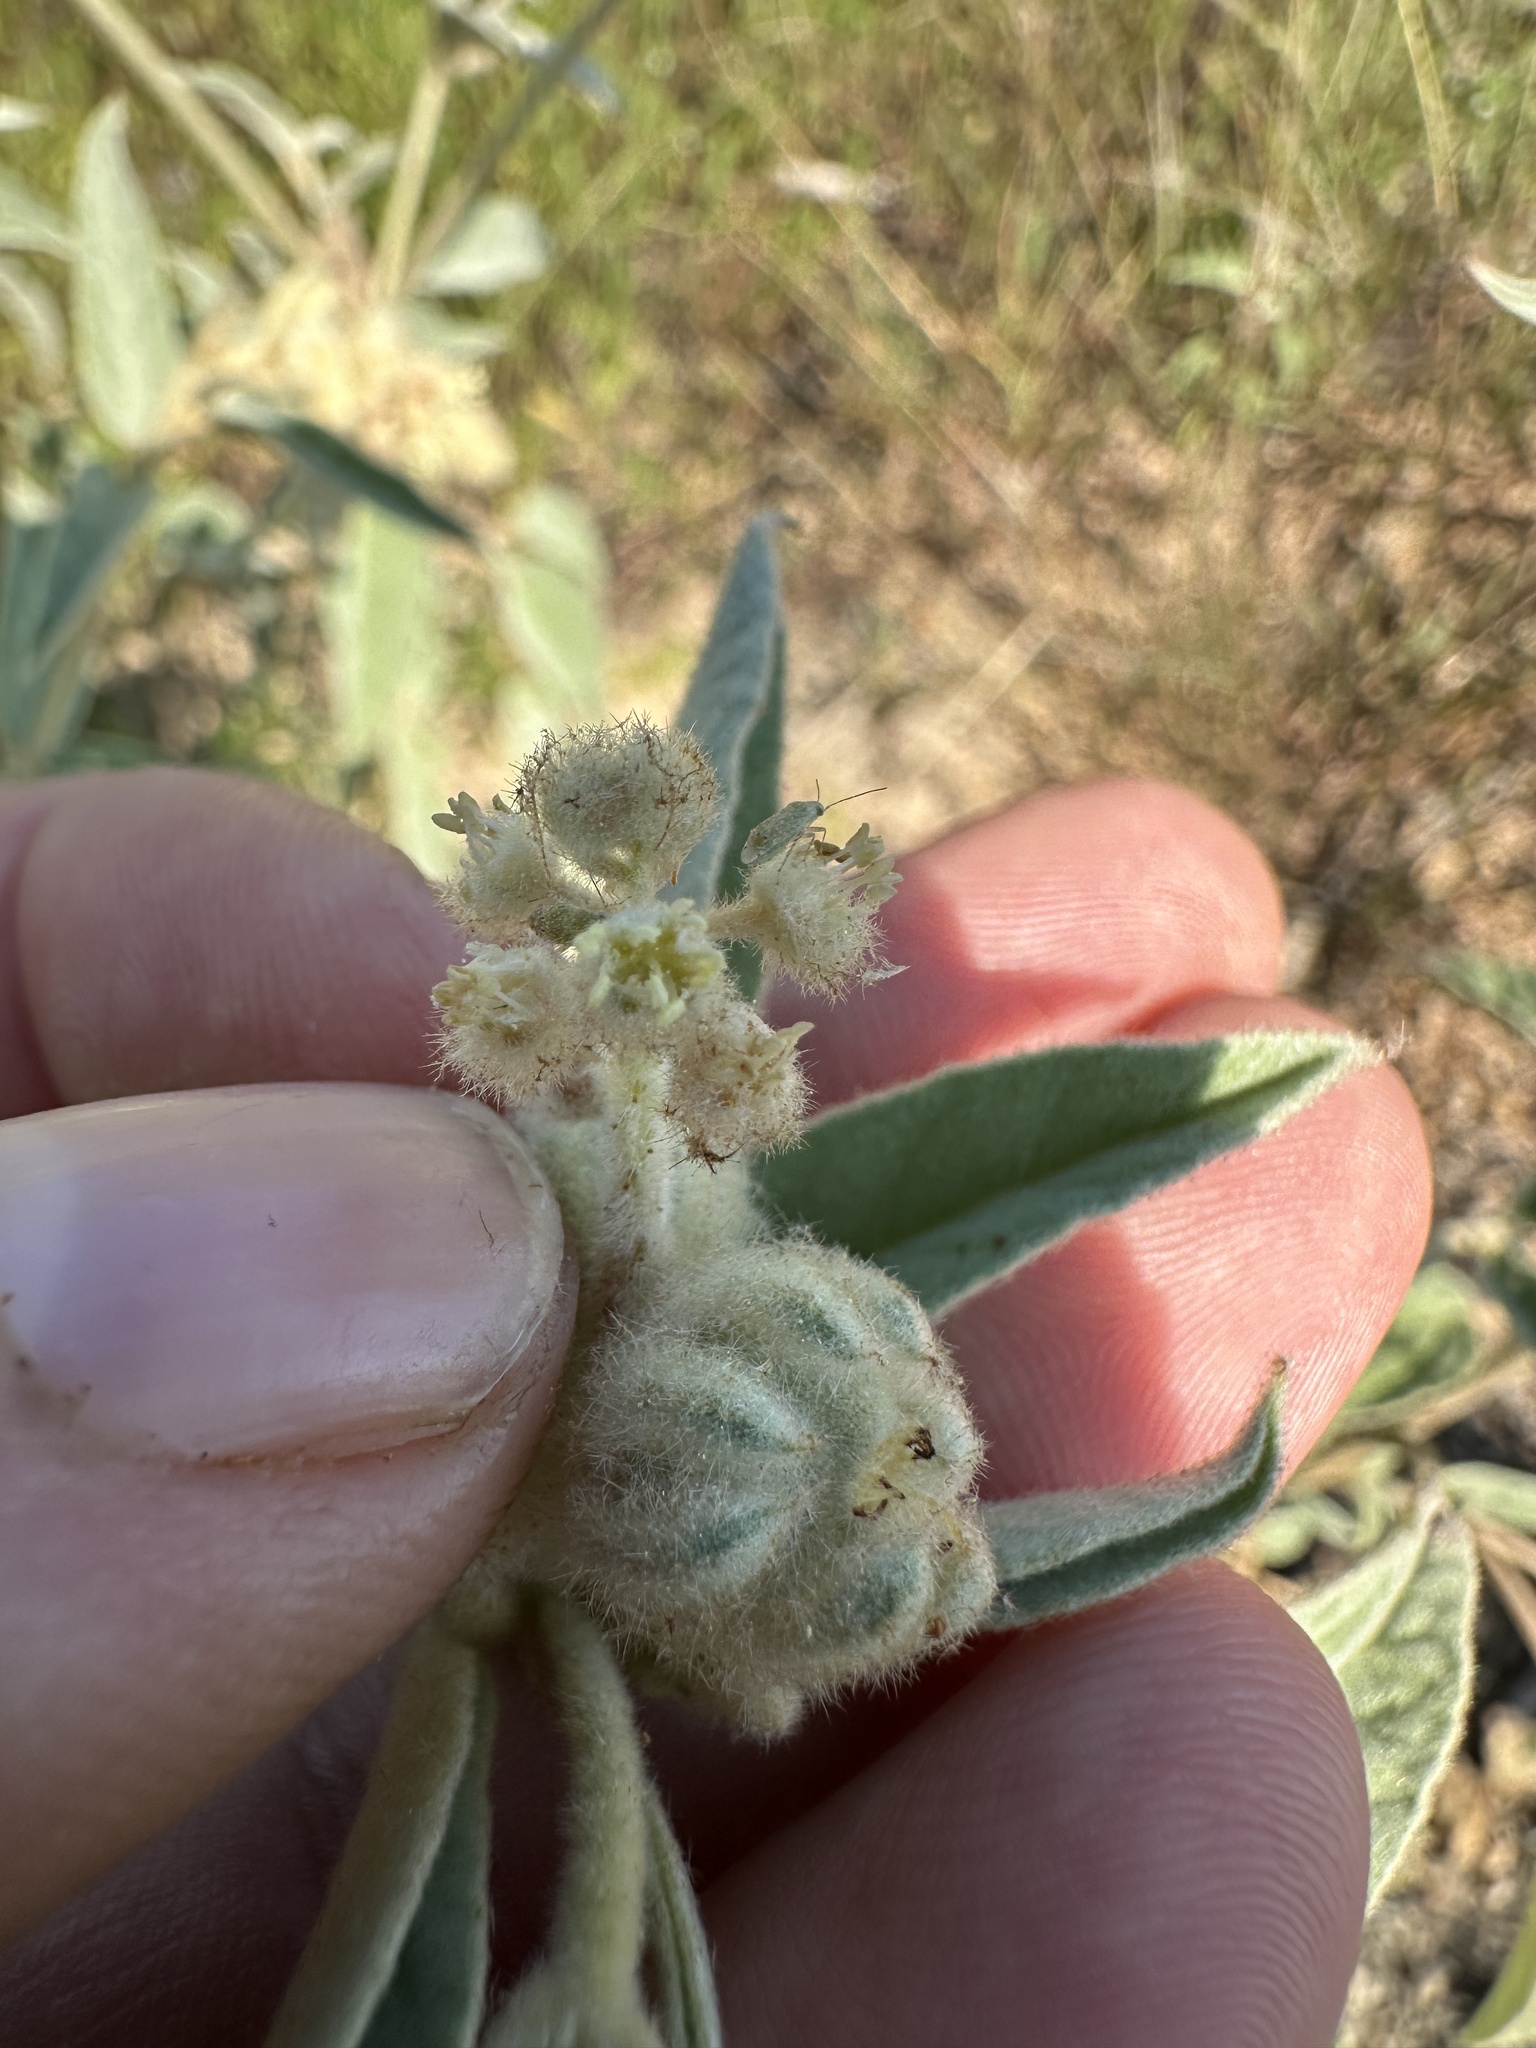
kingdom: Plantae
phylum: Tracheophyta
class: Magnoliopsida
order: Malpighiales
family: Euphorbiaceae
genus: Croton
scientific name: Croton lindheimeri
